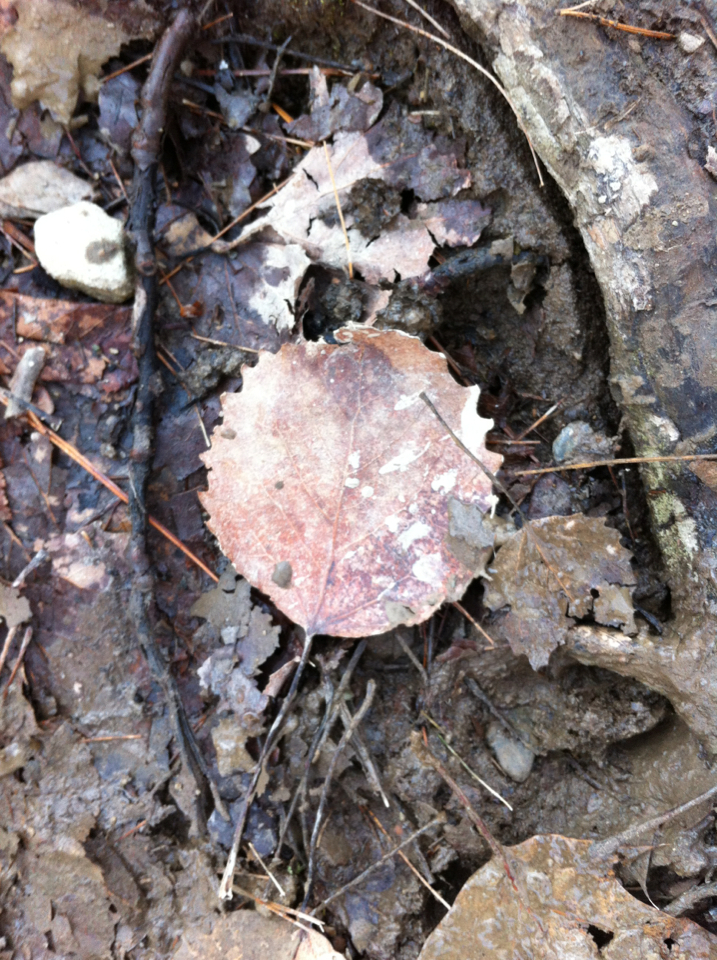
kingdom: Plantae
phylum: Tracheophyta
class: Magnoliopsida
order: Malpighiales
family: Salicaceae
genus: Populus
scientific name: Populus grandidentata
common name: Bigtooth aspen
